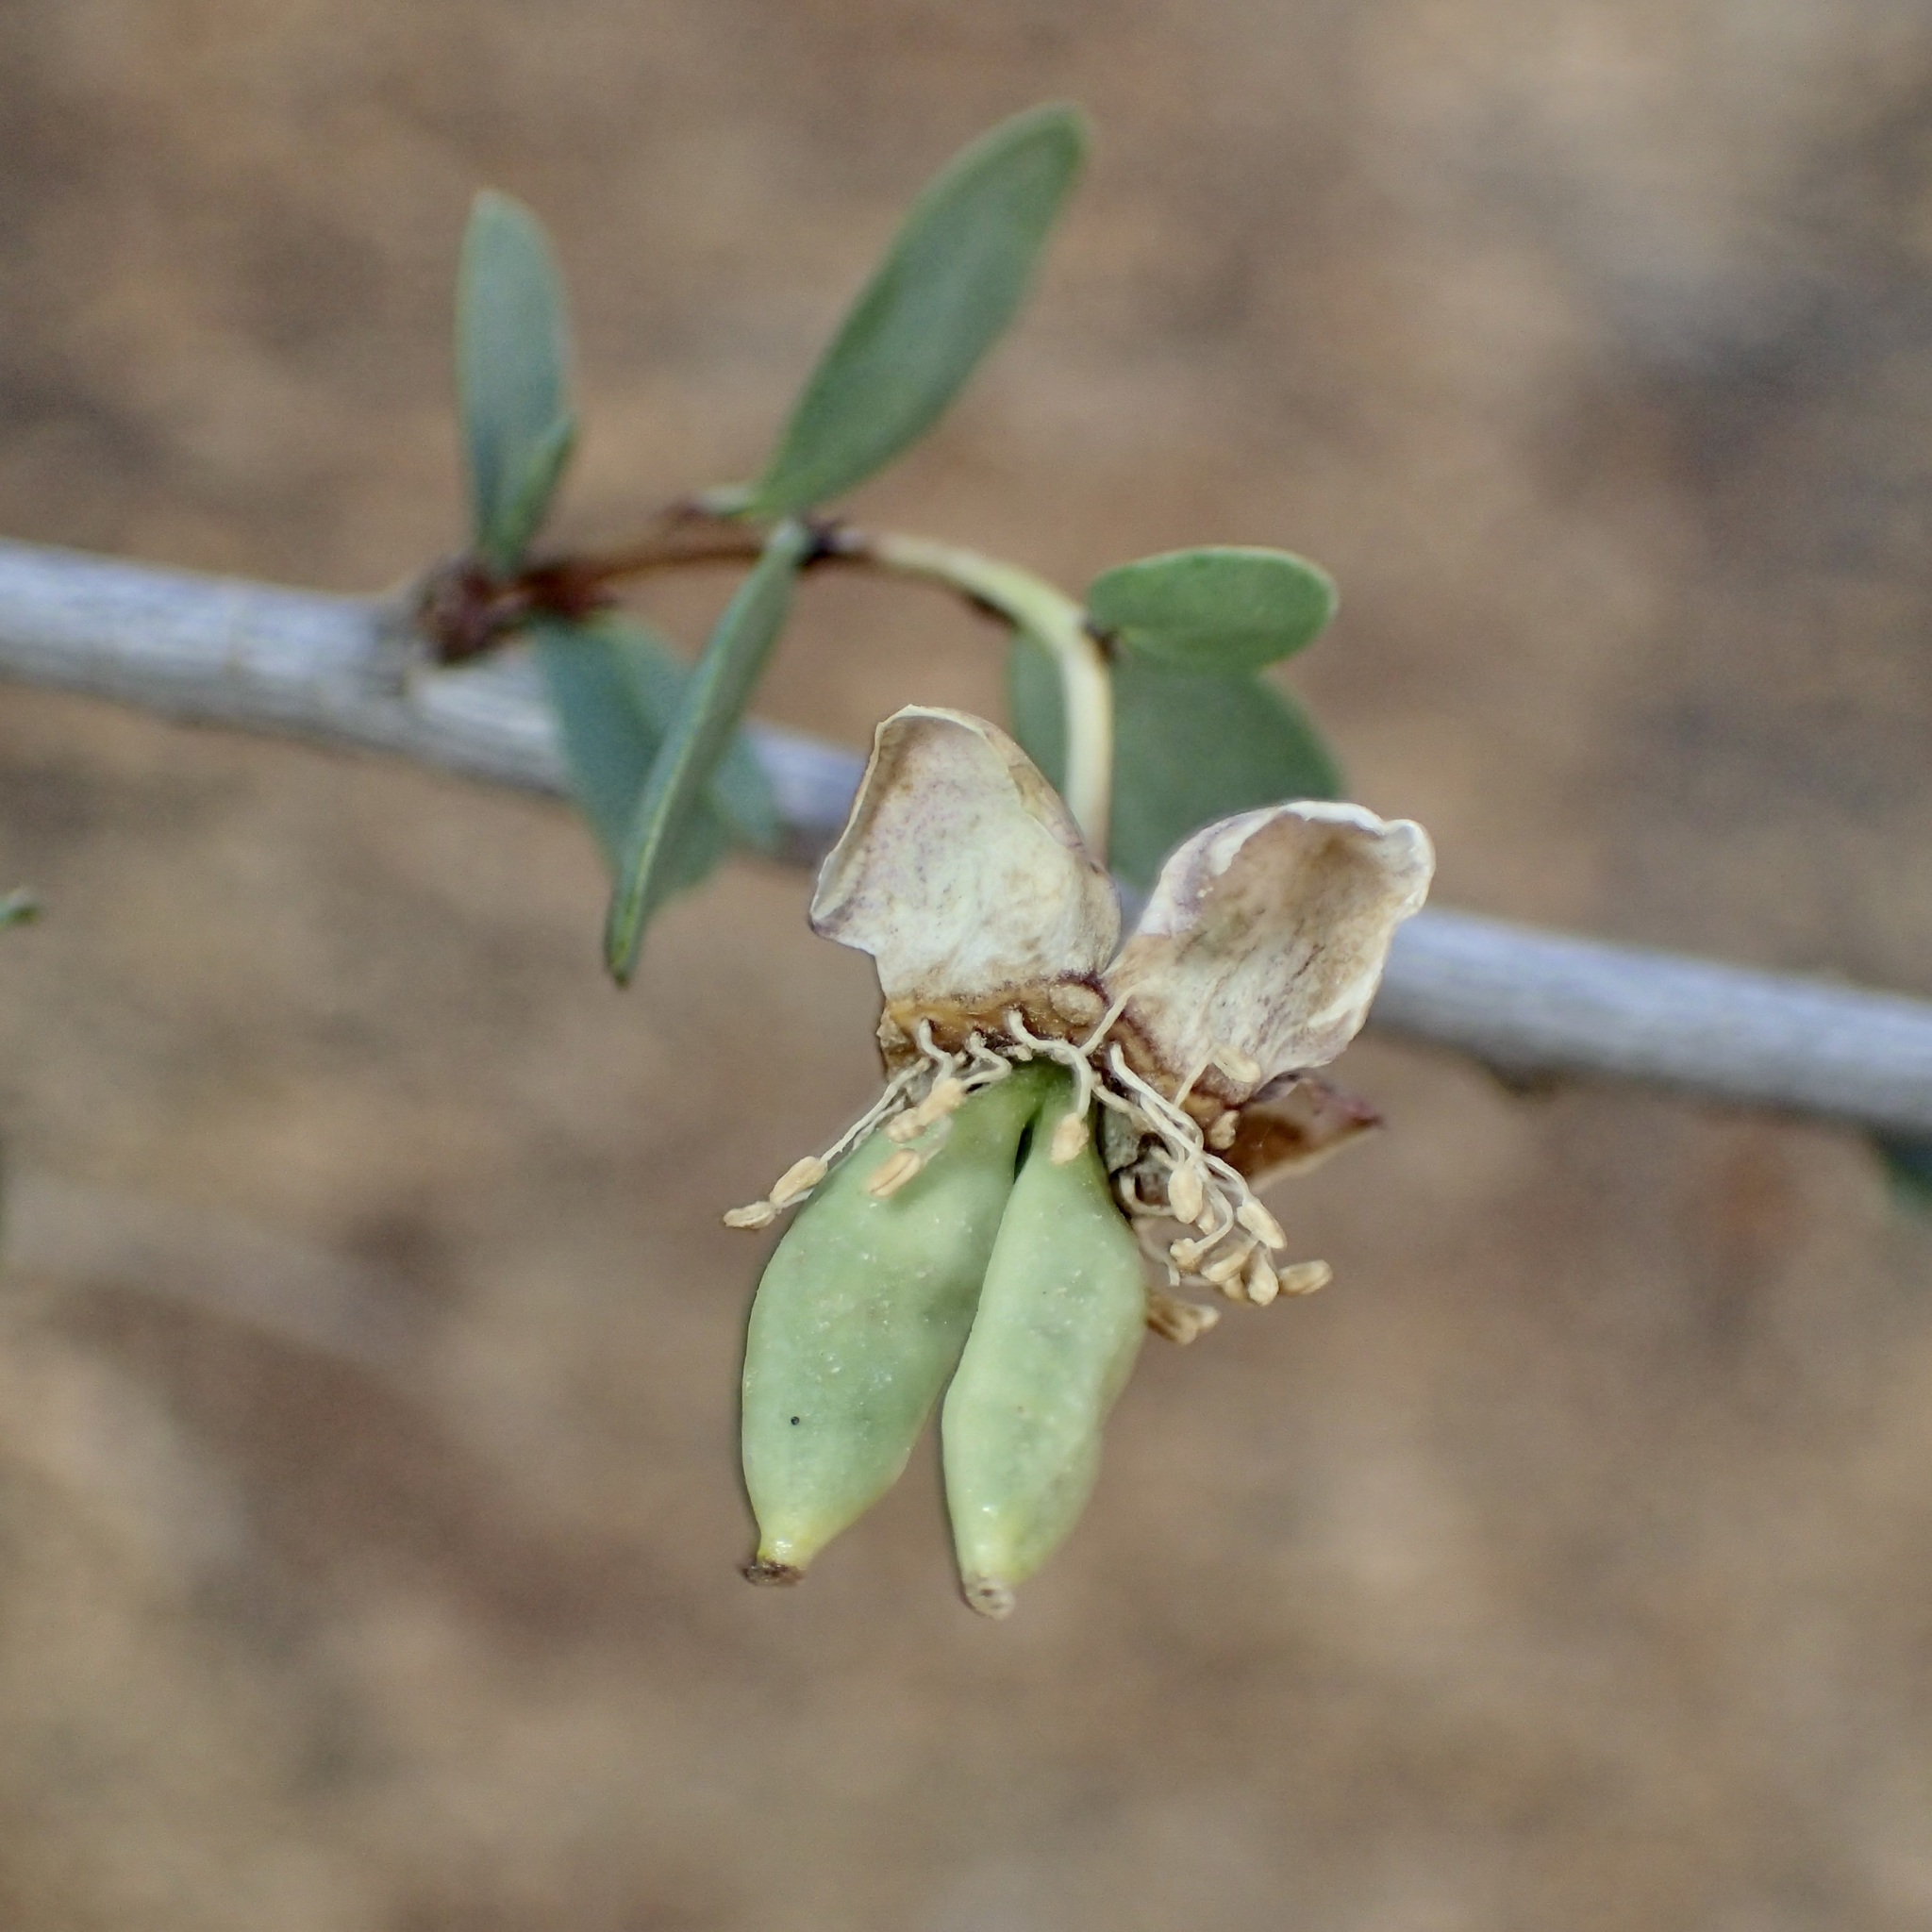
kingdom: Plantae
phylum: Tracheophyta
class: Magnoliopsida
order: Crossosomatales
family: Crossosomataceae
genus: Crossosoma
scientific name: Crossosoma bigelovii
